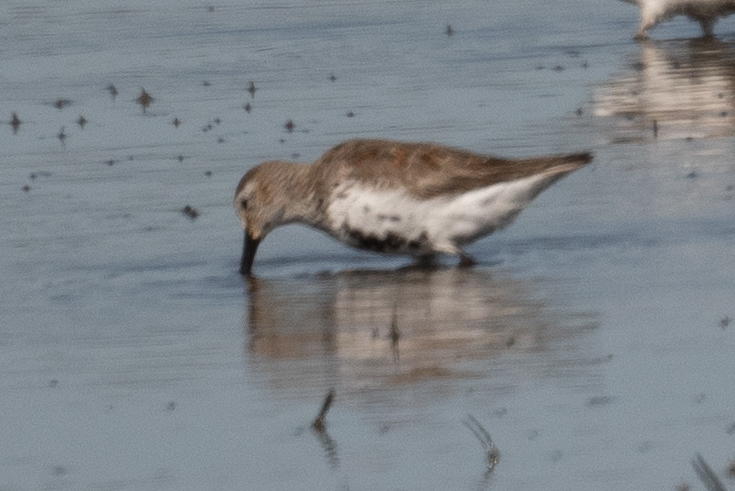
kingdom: Animalia
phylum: Chordata
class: Aves
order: Charadriiformes
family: Scolopacidae
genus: Calidris
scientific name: Calidris alpina
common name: Dunlin
